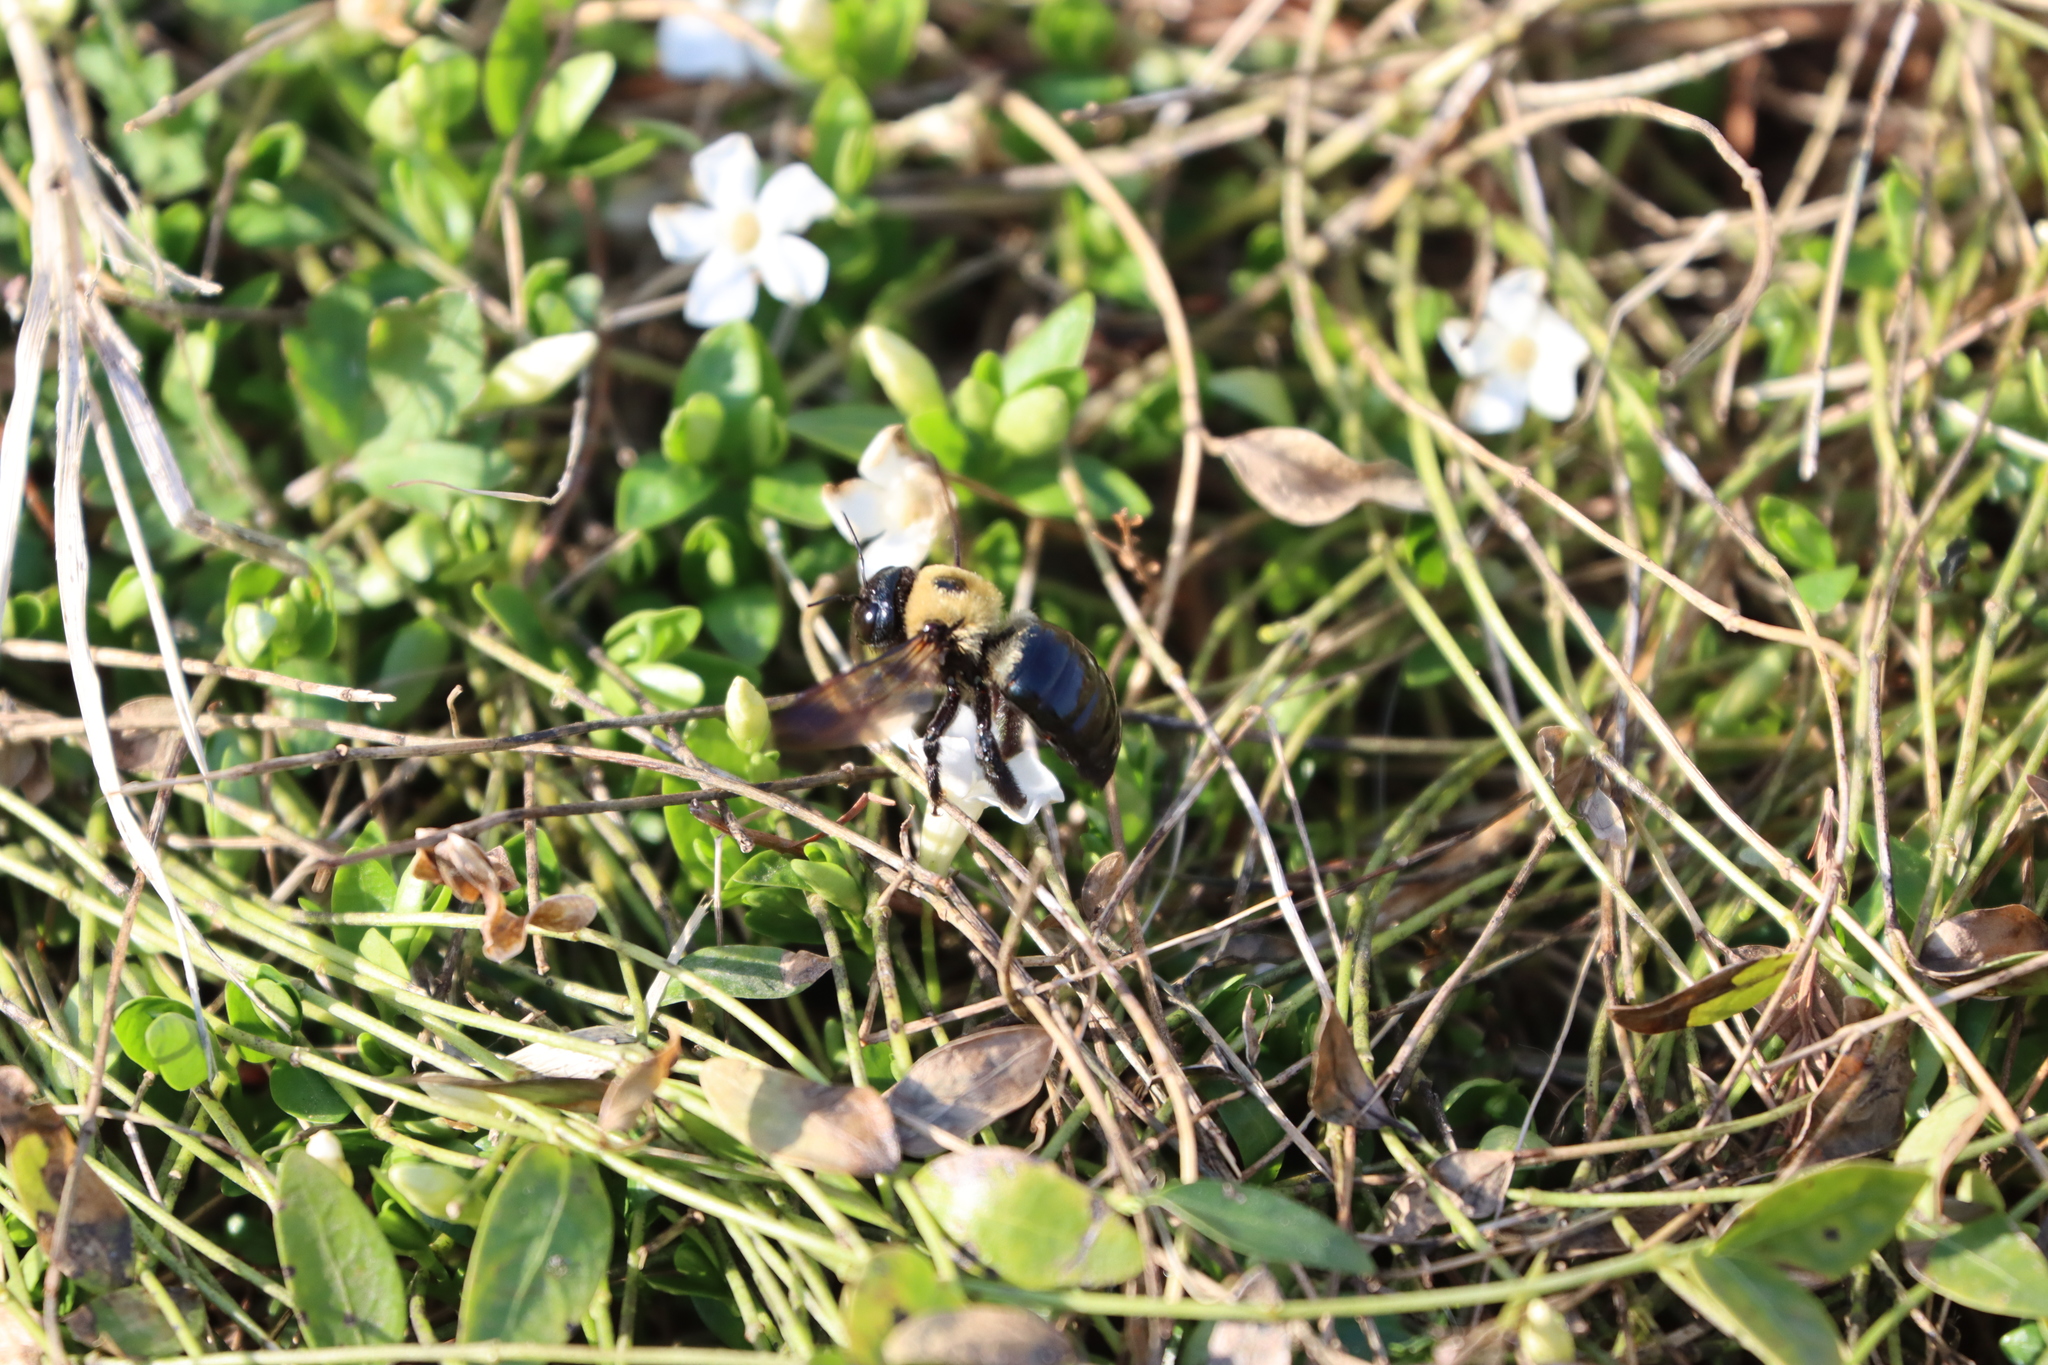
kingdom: Animalia
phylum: Arthropoda
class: Insecta
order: Hymenoptera
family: Apidae
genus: Xylocopa
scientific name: Xylocopa virginica
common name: Carpenter bee
